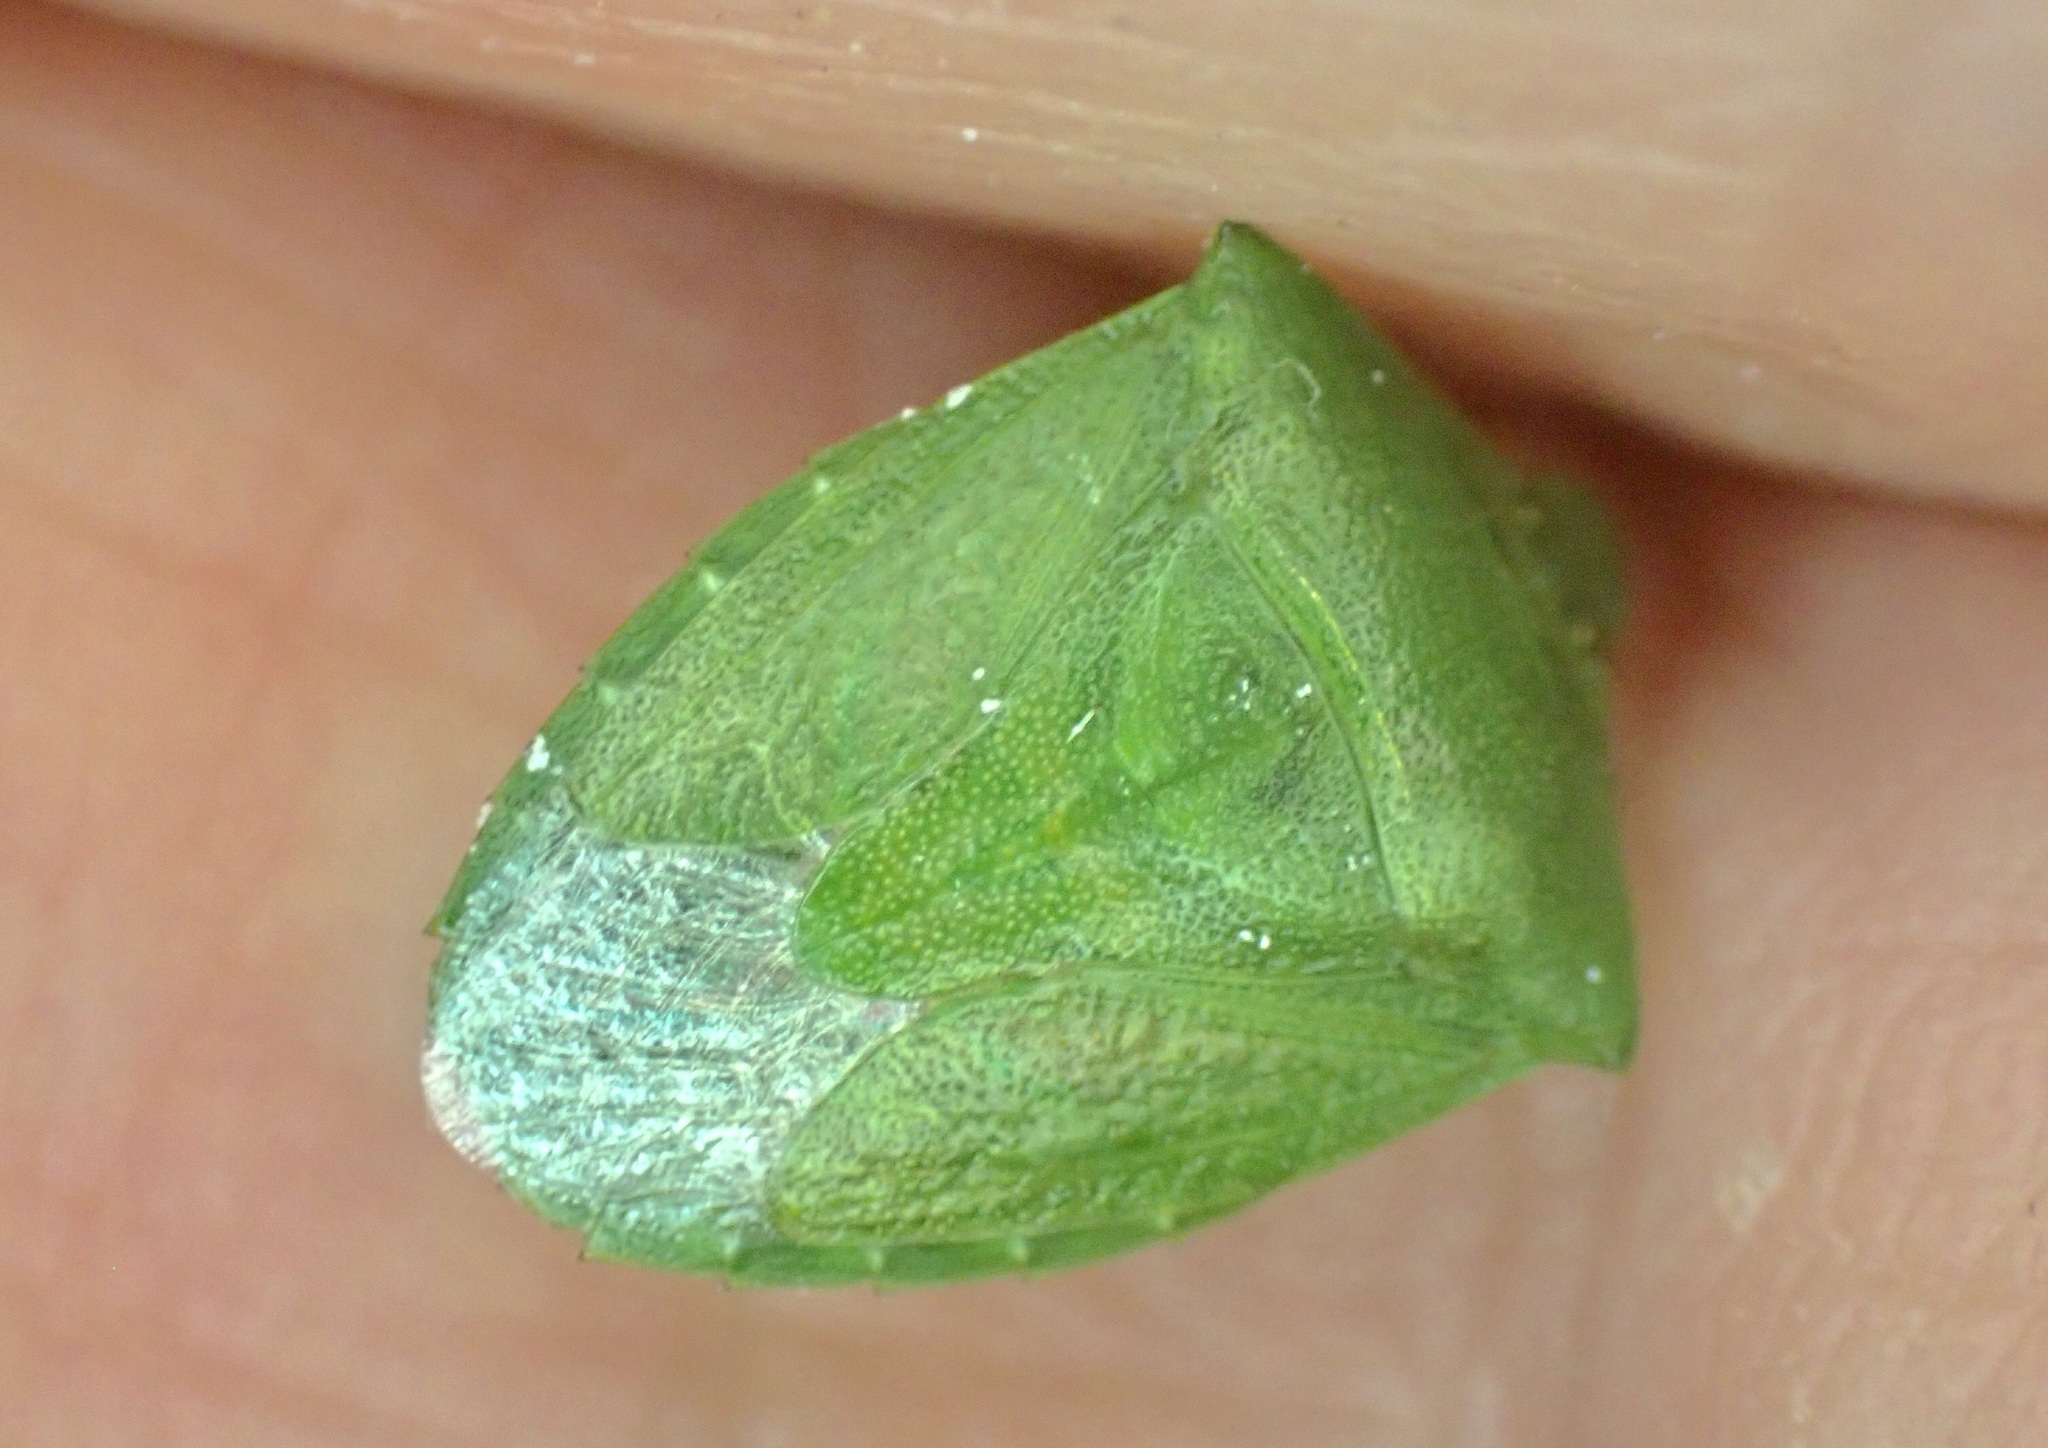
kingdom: Animalia
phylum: Arthropoda
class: Insecta
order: Hemiptera
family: Pentatomidae
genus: Cuspicona
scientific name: Cuspicona simplex
